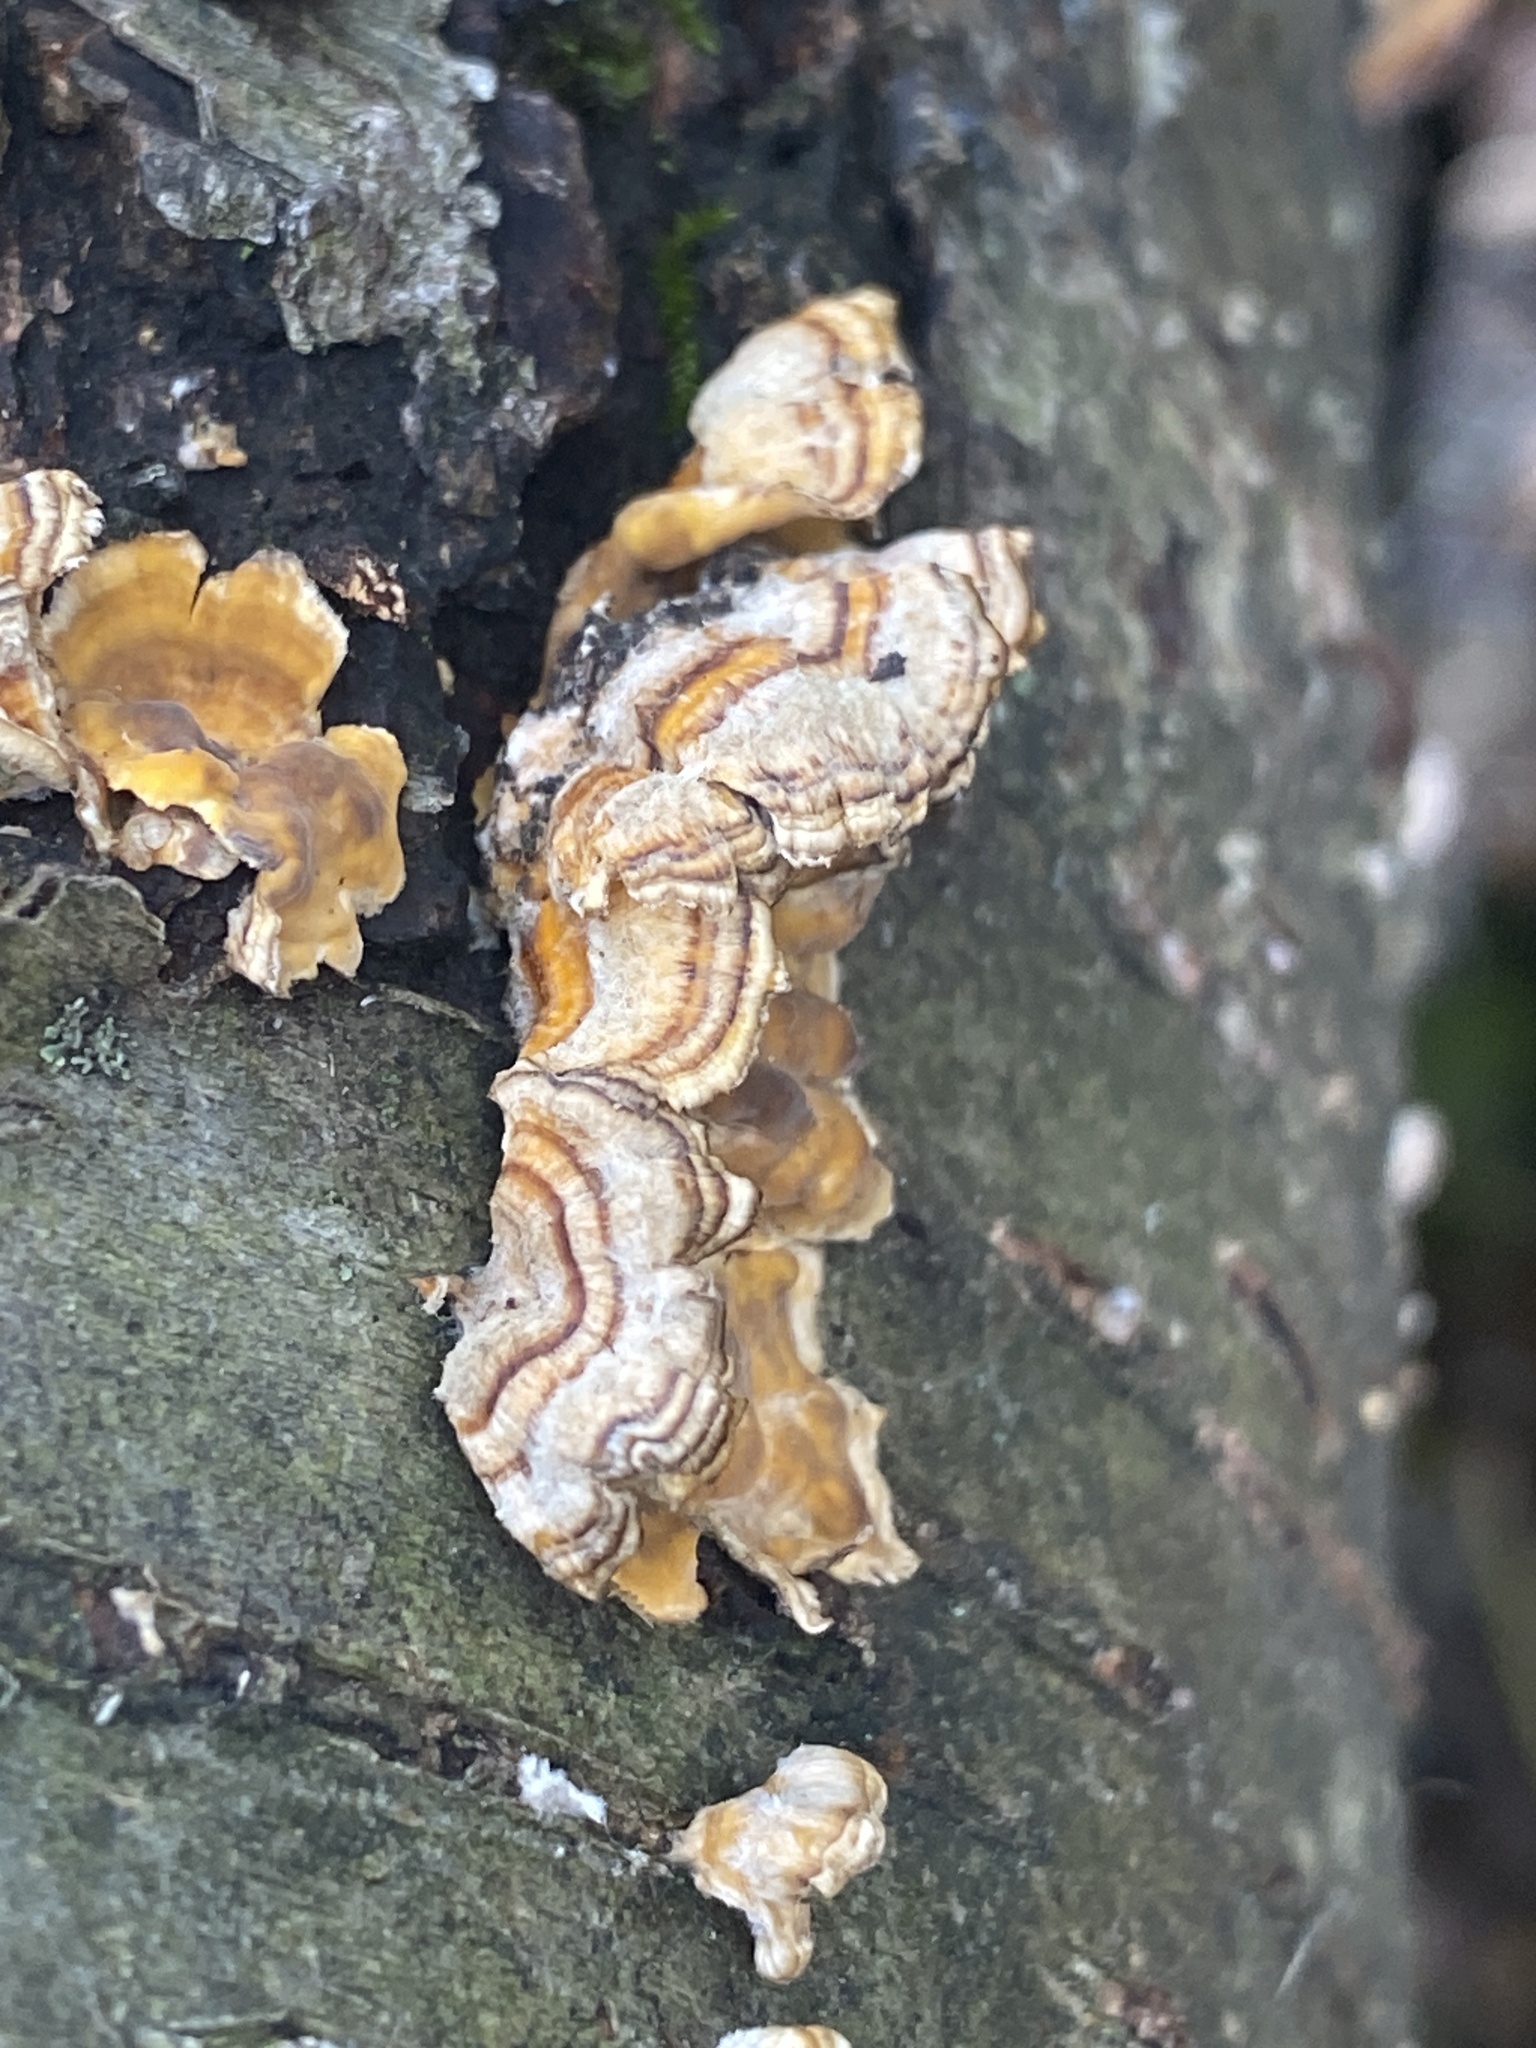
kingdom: Fungi
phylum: Basidiomycota
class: Agaricomycetes
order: Russulales
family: Stereaceae
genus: Stereum
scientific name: Stereum complicatum
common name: Crowded parchment
